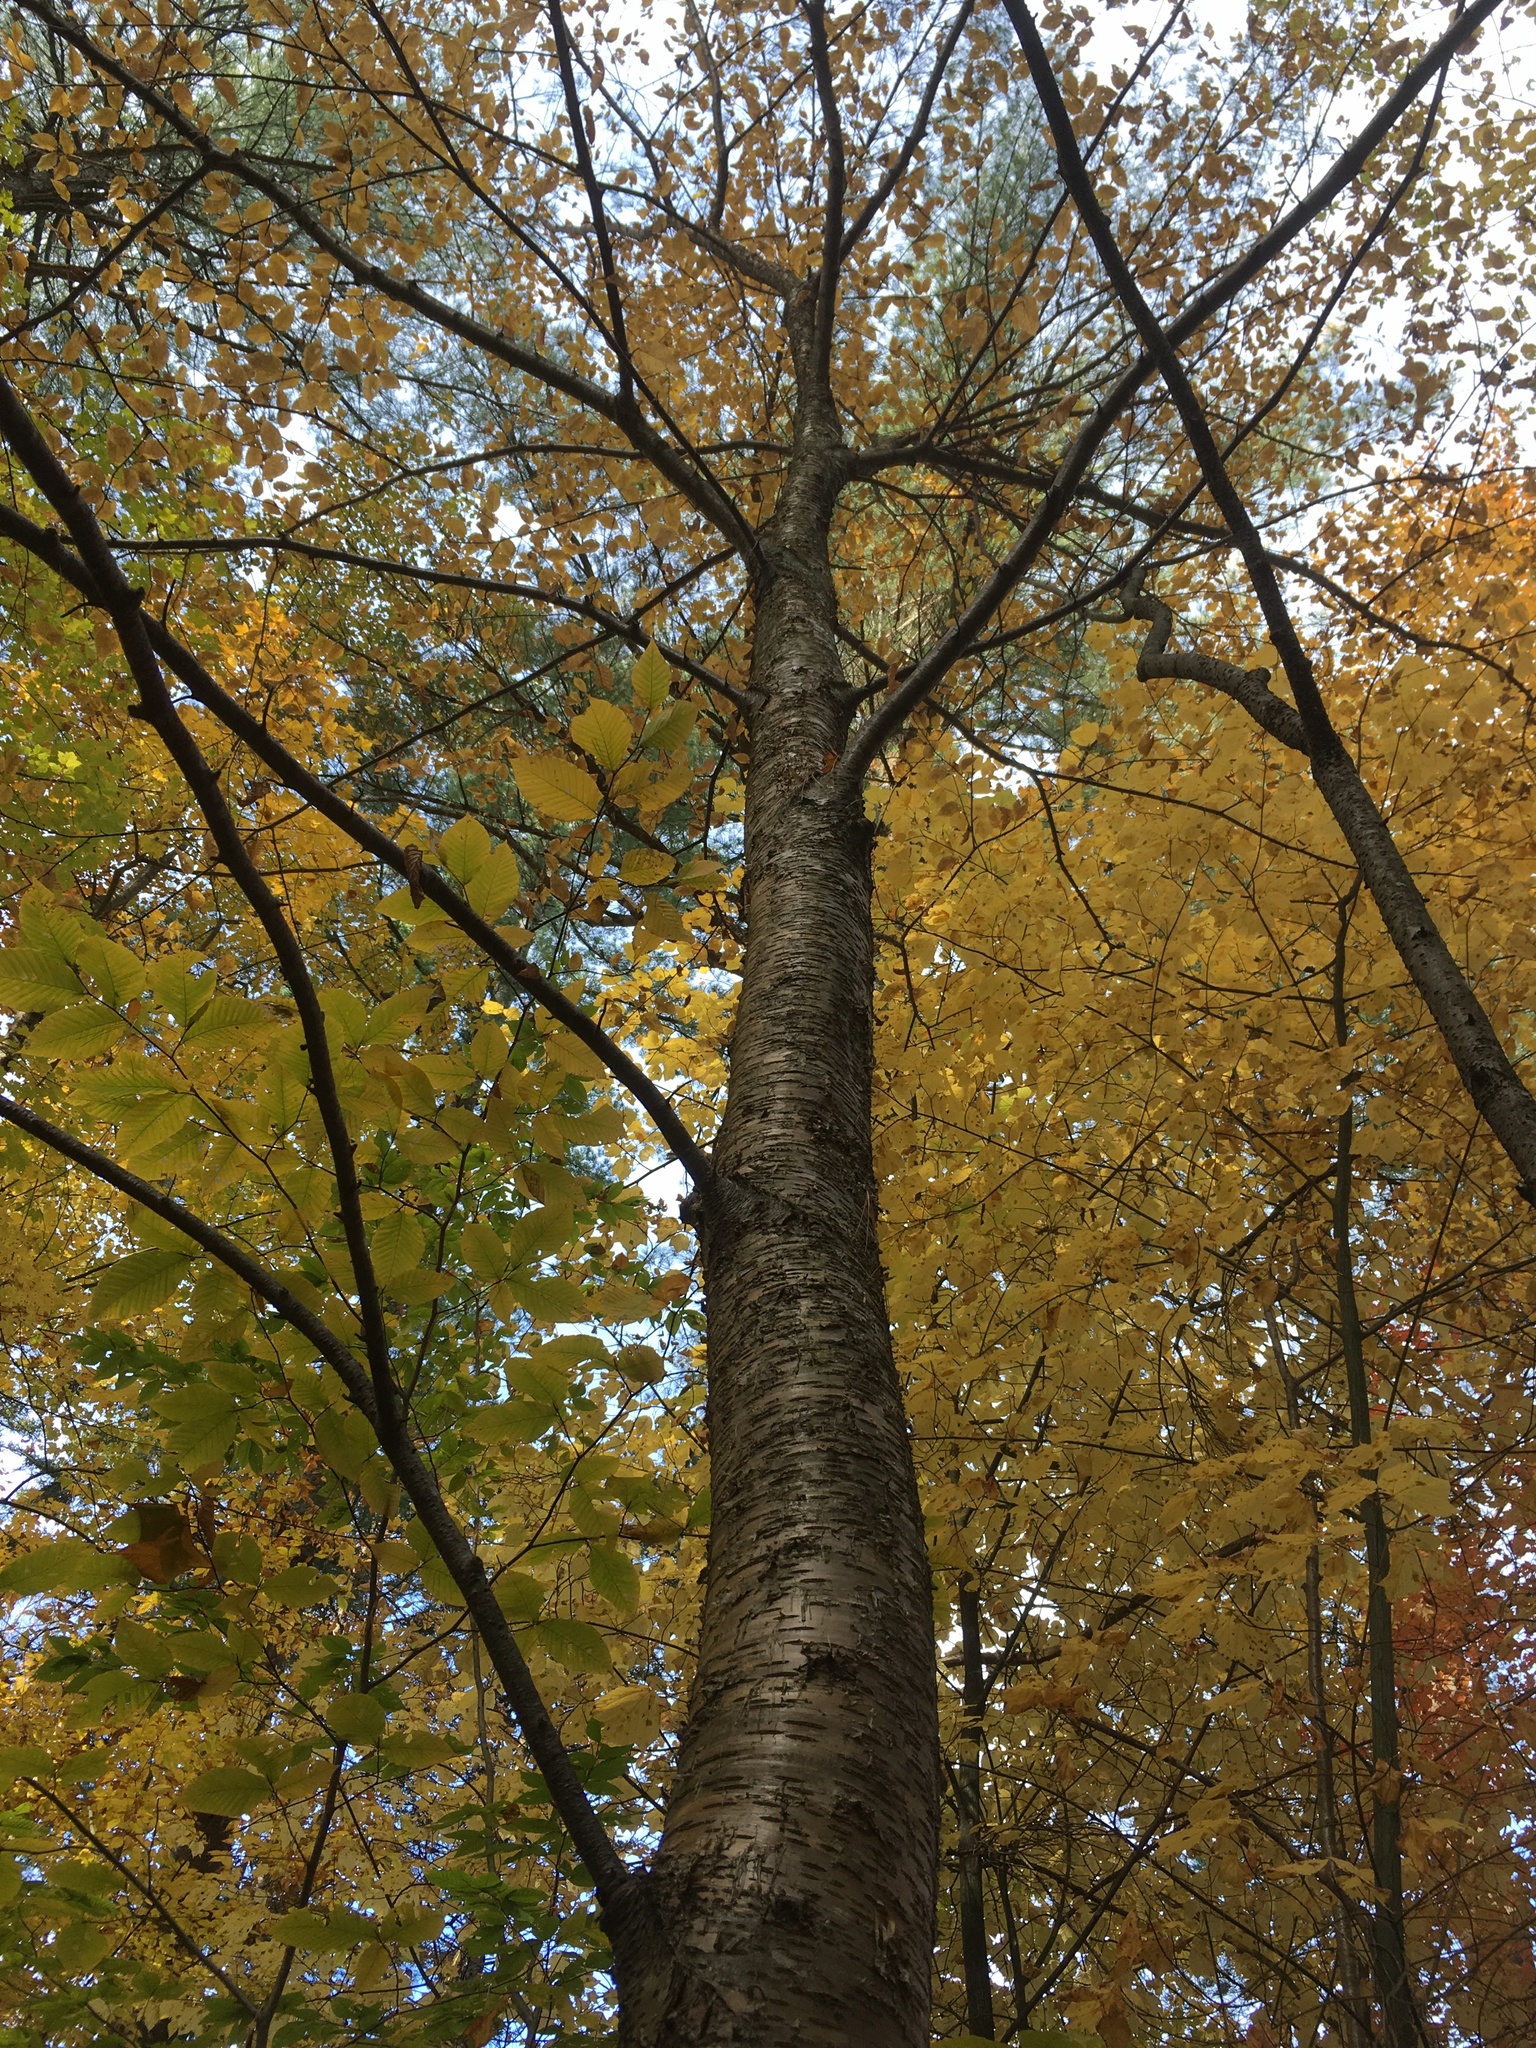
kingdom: Plantae
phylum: Tracheophyta
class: Magnoliopsida
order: Fagales
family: Betulaceae
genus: Betula
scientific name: Betula alleghaniensis
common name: Yellow birch
